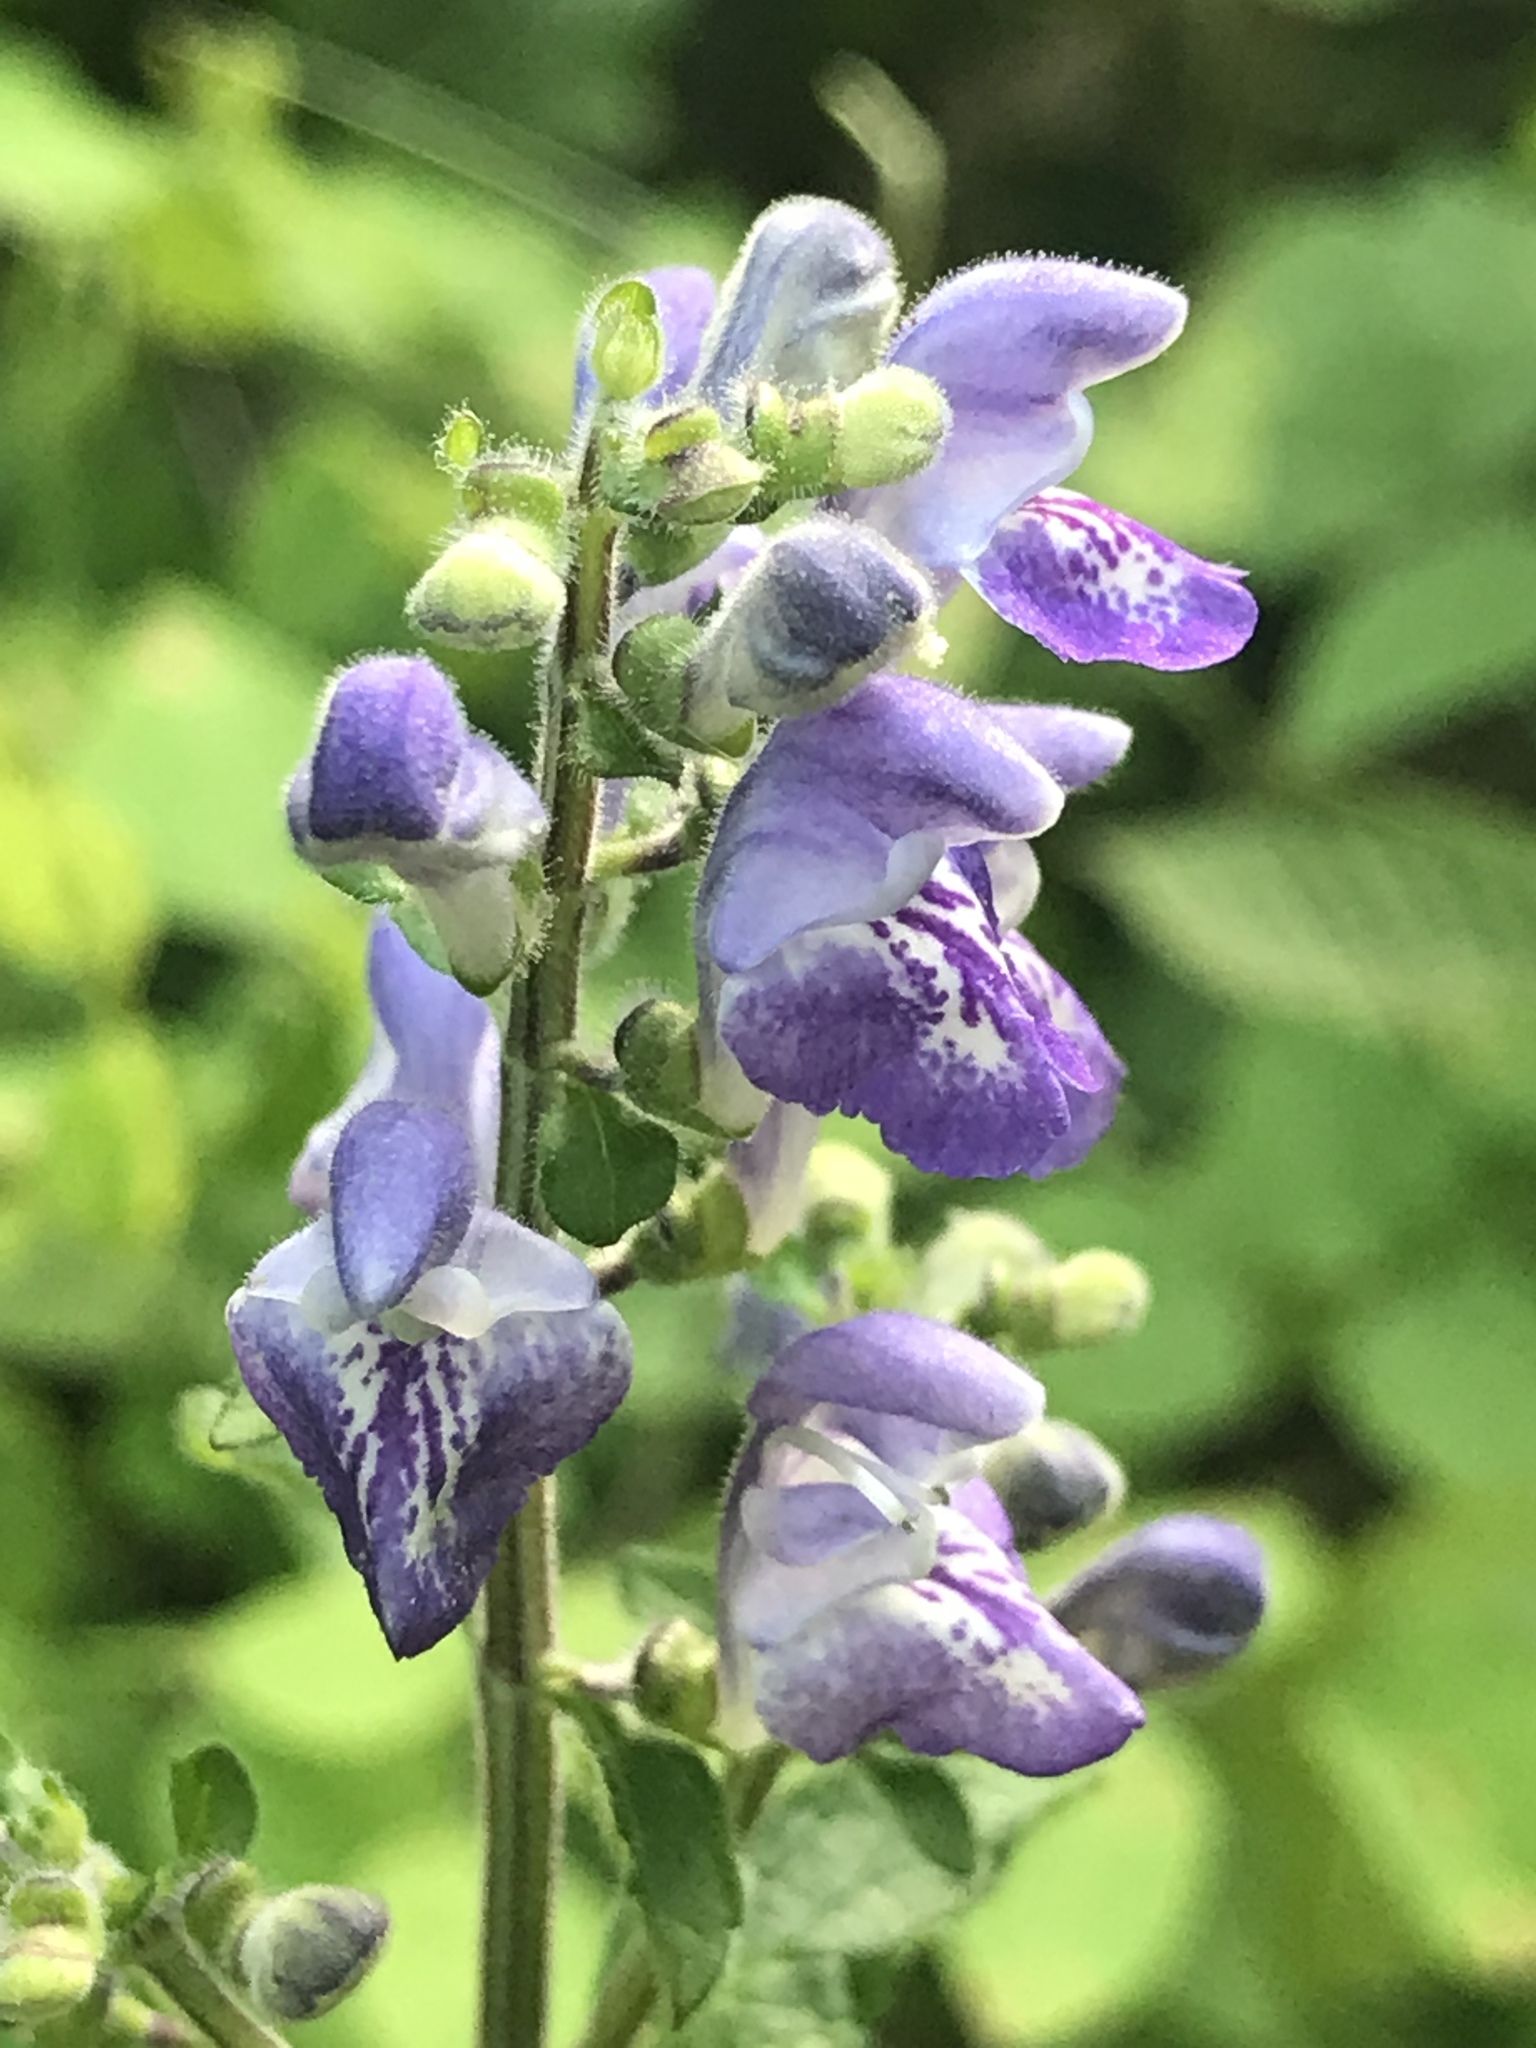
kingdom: Plantae
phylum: Tracheophyta
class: Magnoliopsida
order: Lamiales
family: Lamiaceae
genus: Scutellaria
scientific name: Scutellaria elliptica
